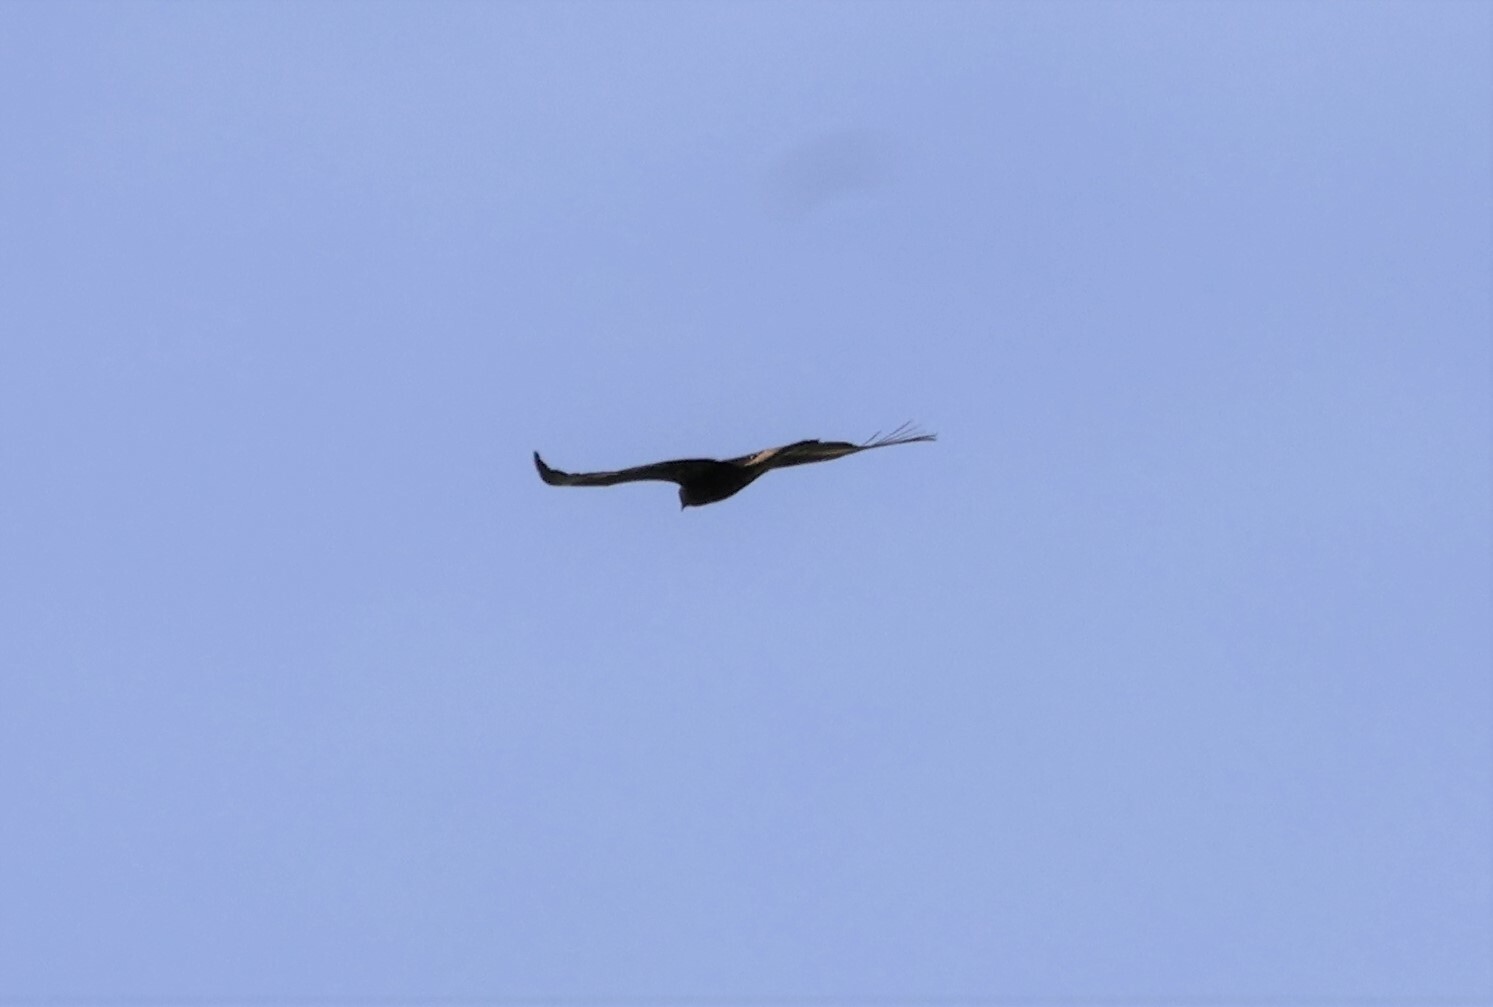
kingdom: Animalia
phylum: Chordata
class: Aves
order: Accipitriformes
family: Accipitridae
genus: Aquila
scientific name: Aquila chrysaetos
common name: Golden eagle
